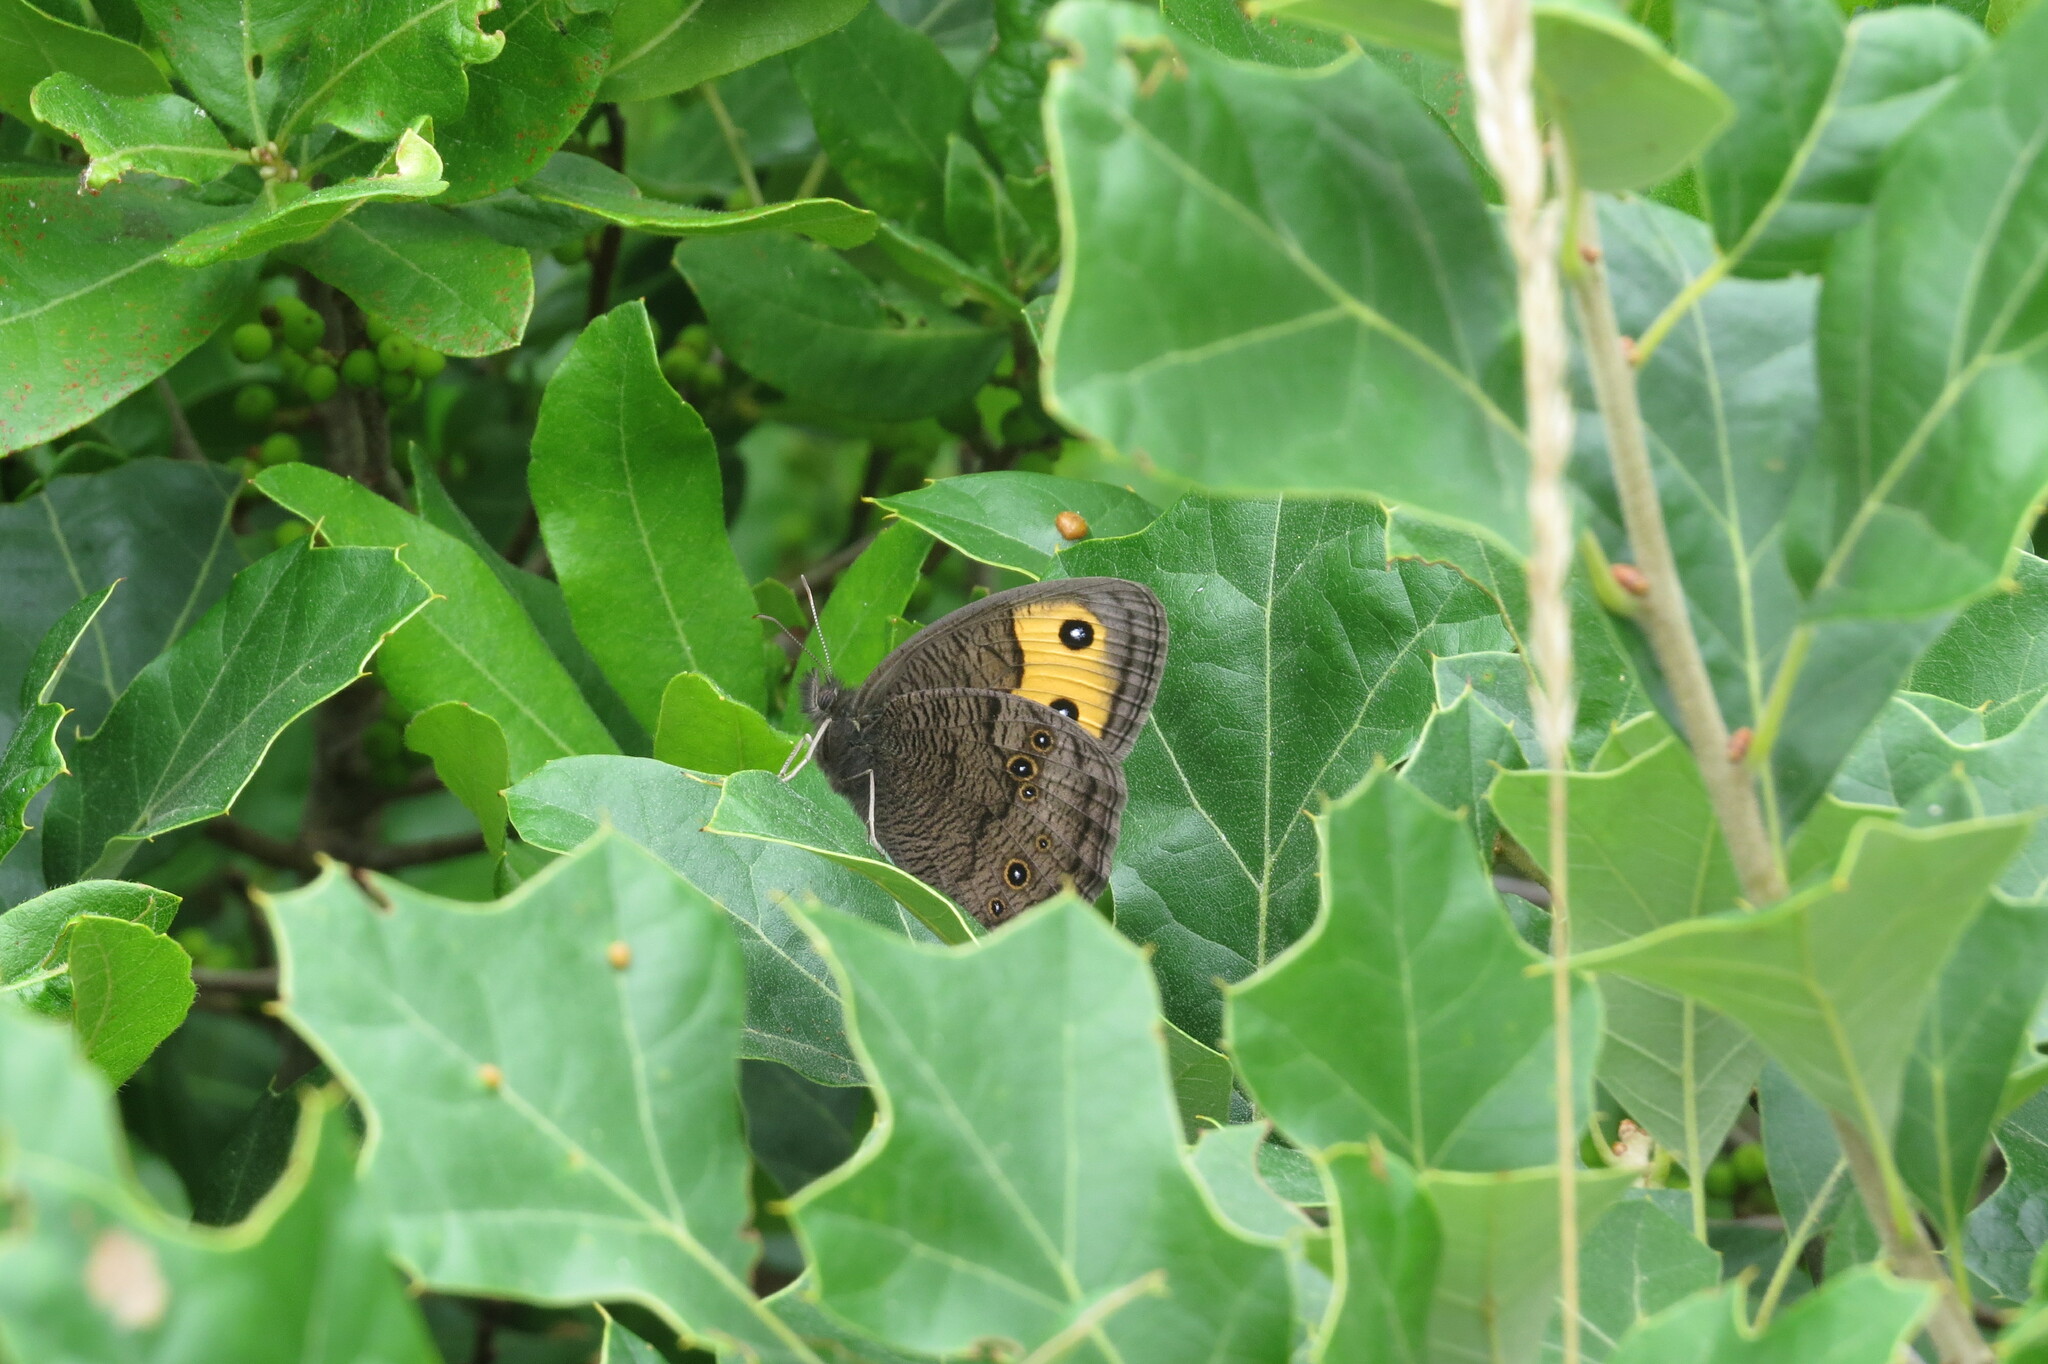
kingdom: Animalia
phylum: Arthropoda
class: Insecta
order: Lepidoptera
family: Nymphalidae
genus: Cercyonis
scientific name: Cercyonis pegala
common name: Common wood-nymph
